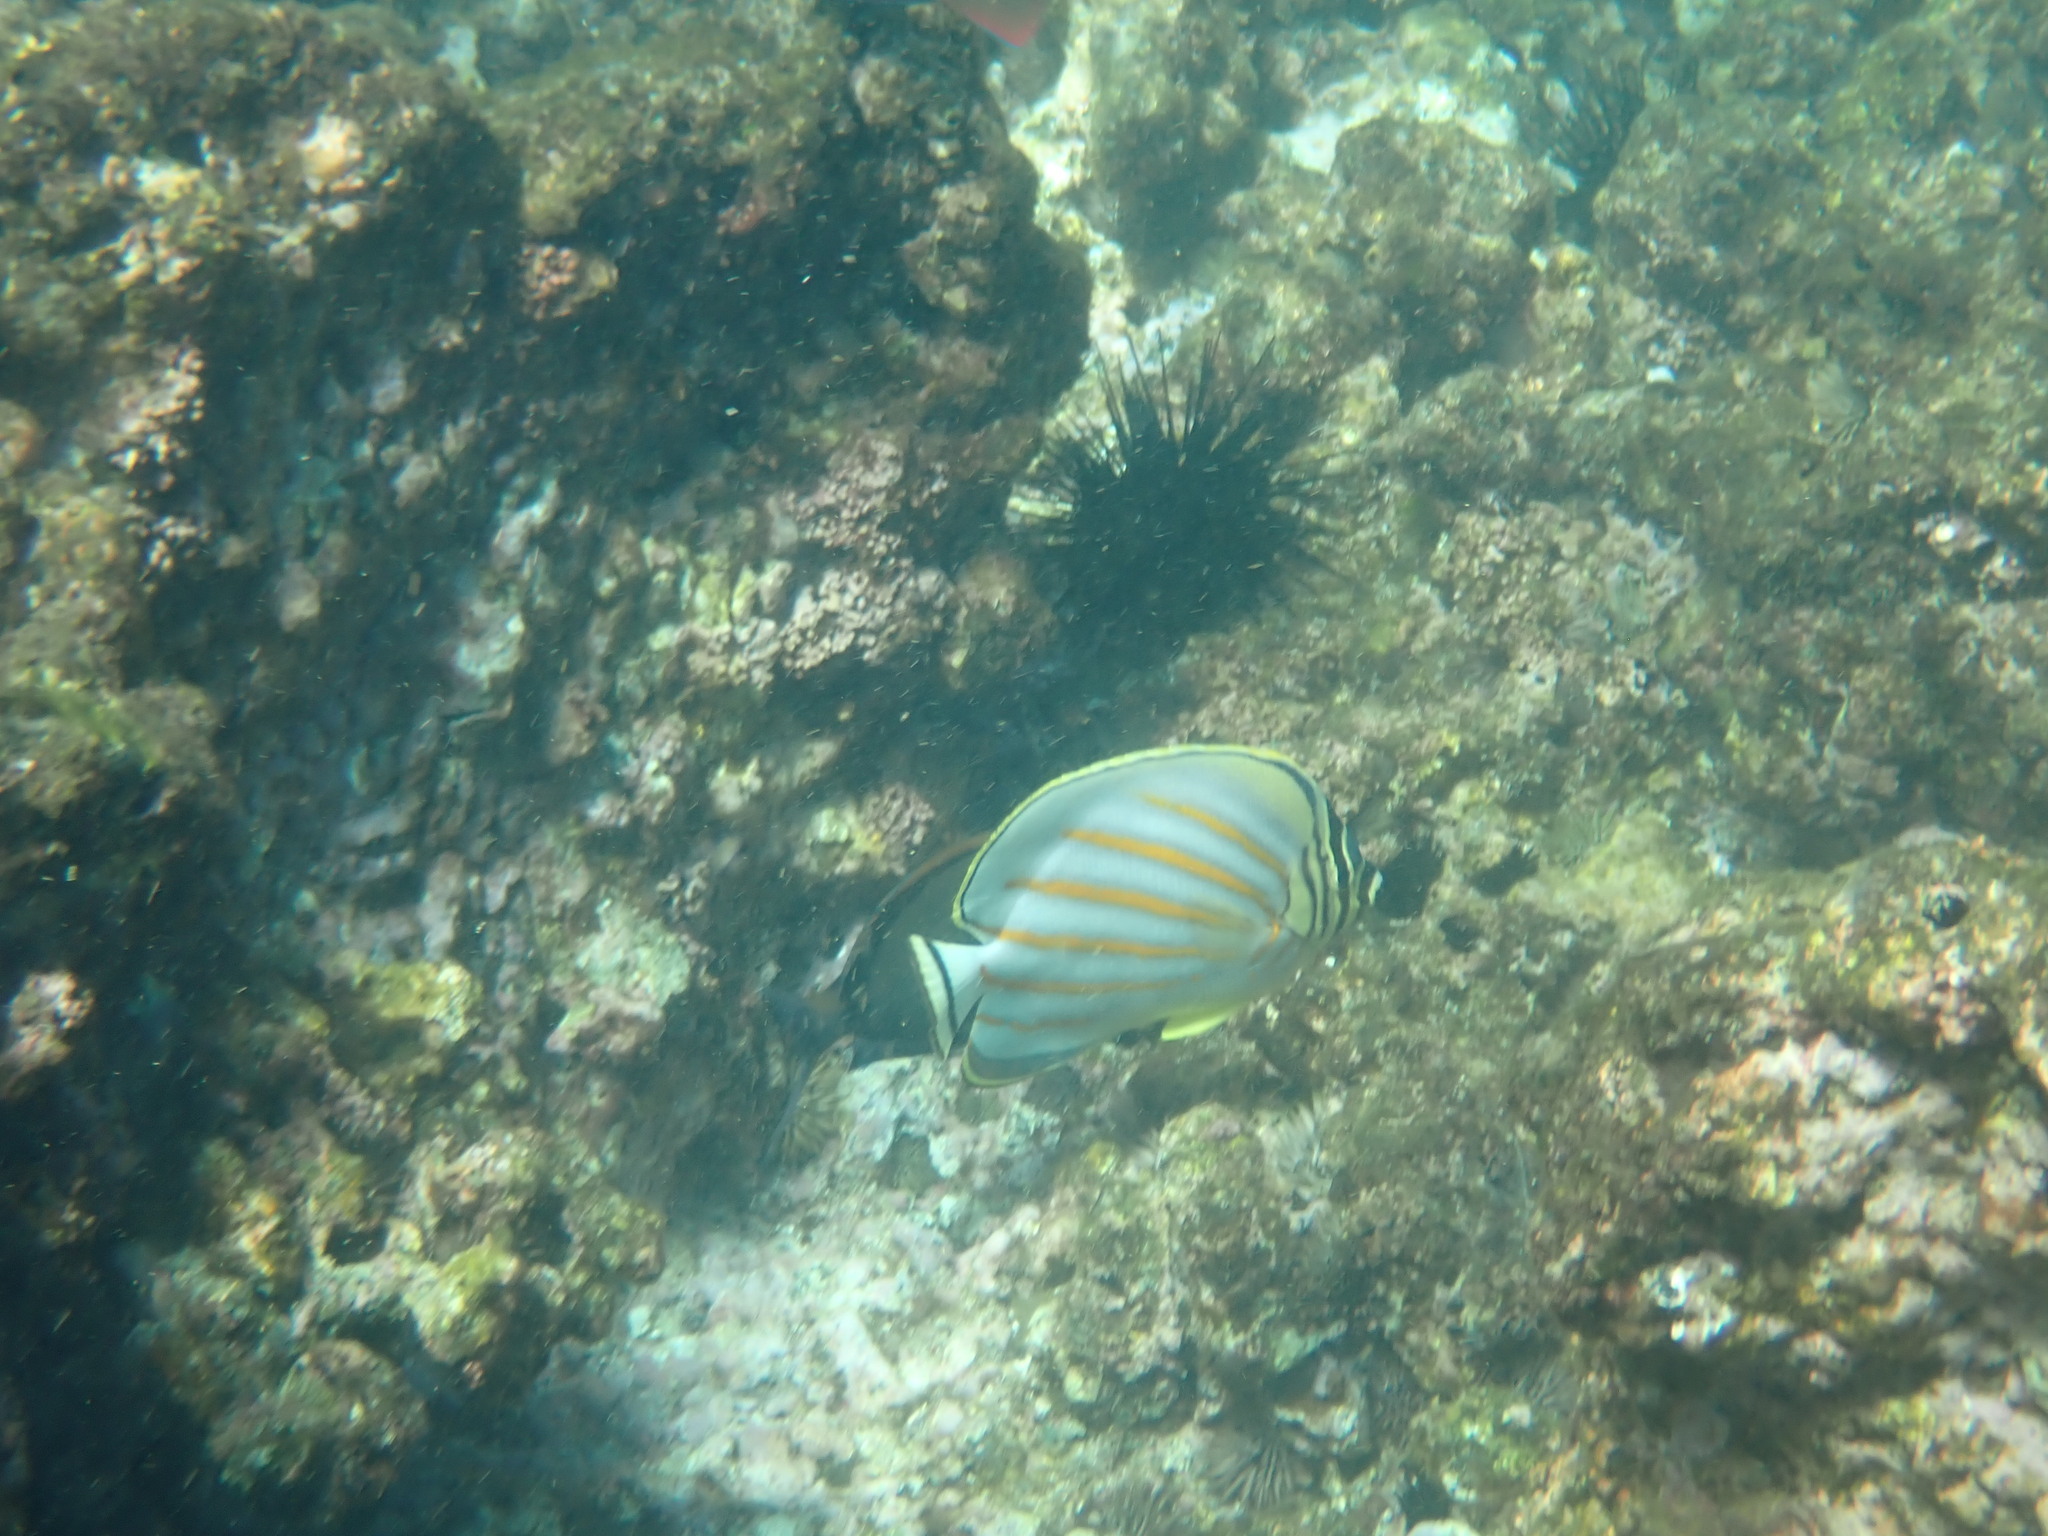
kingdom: Animalia
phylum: Chordata
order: Perciformes
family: Chaetodontidae
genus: Chaetodon
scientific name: Chaetodon ornatissimus
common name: Ornate butterflyfish
